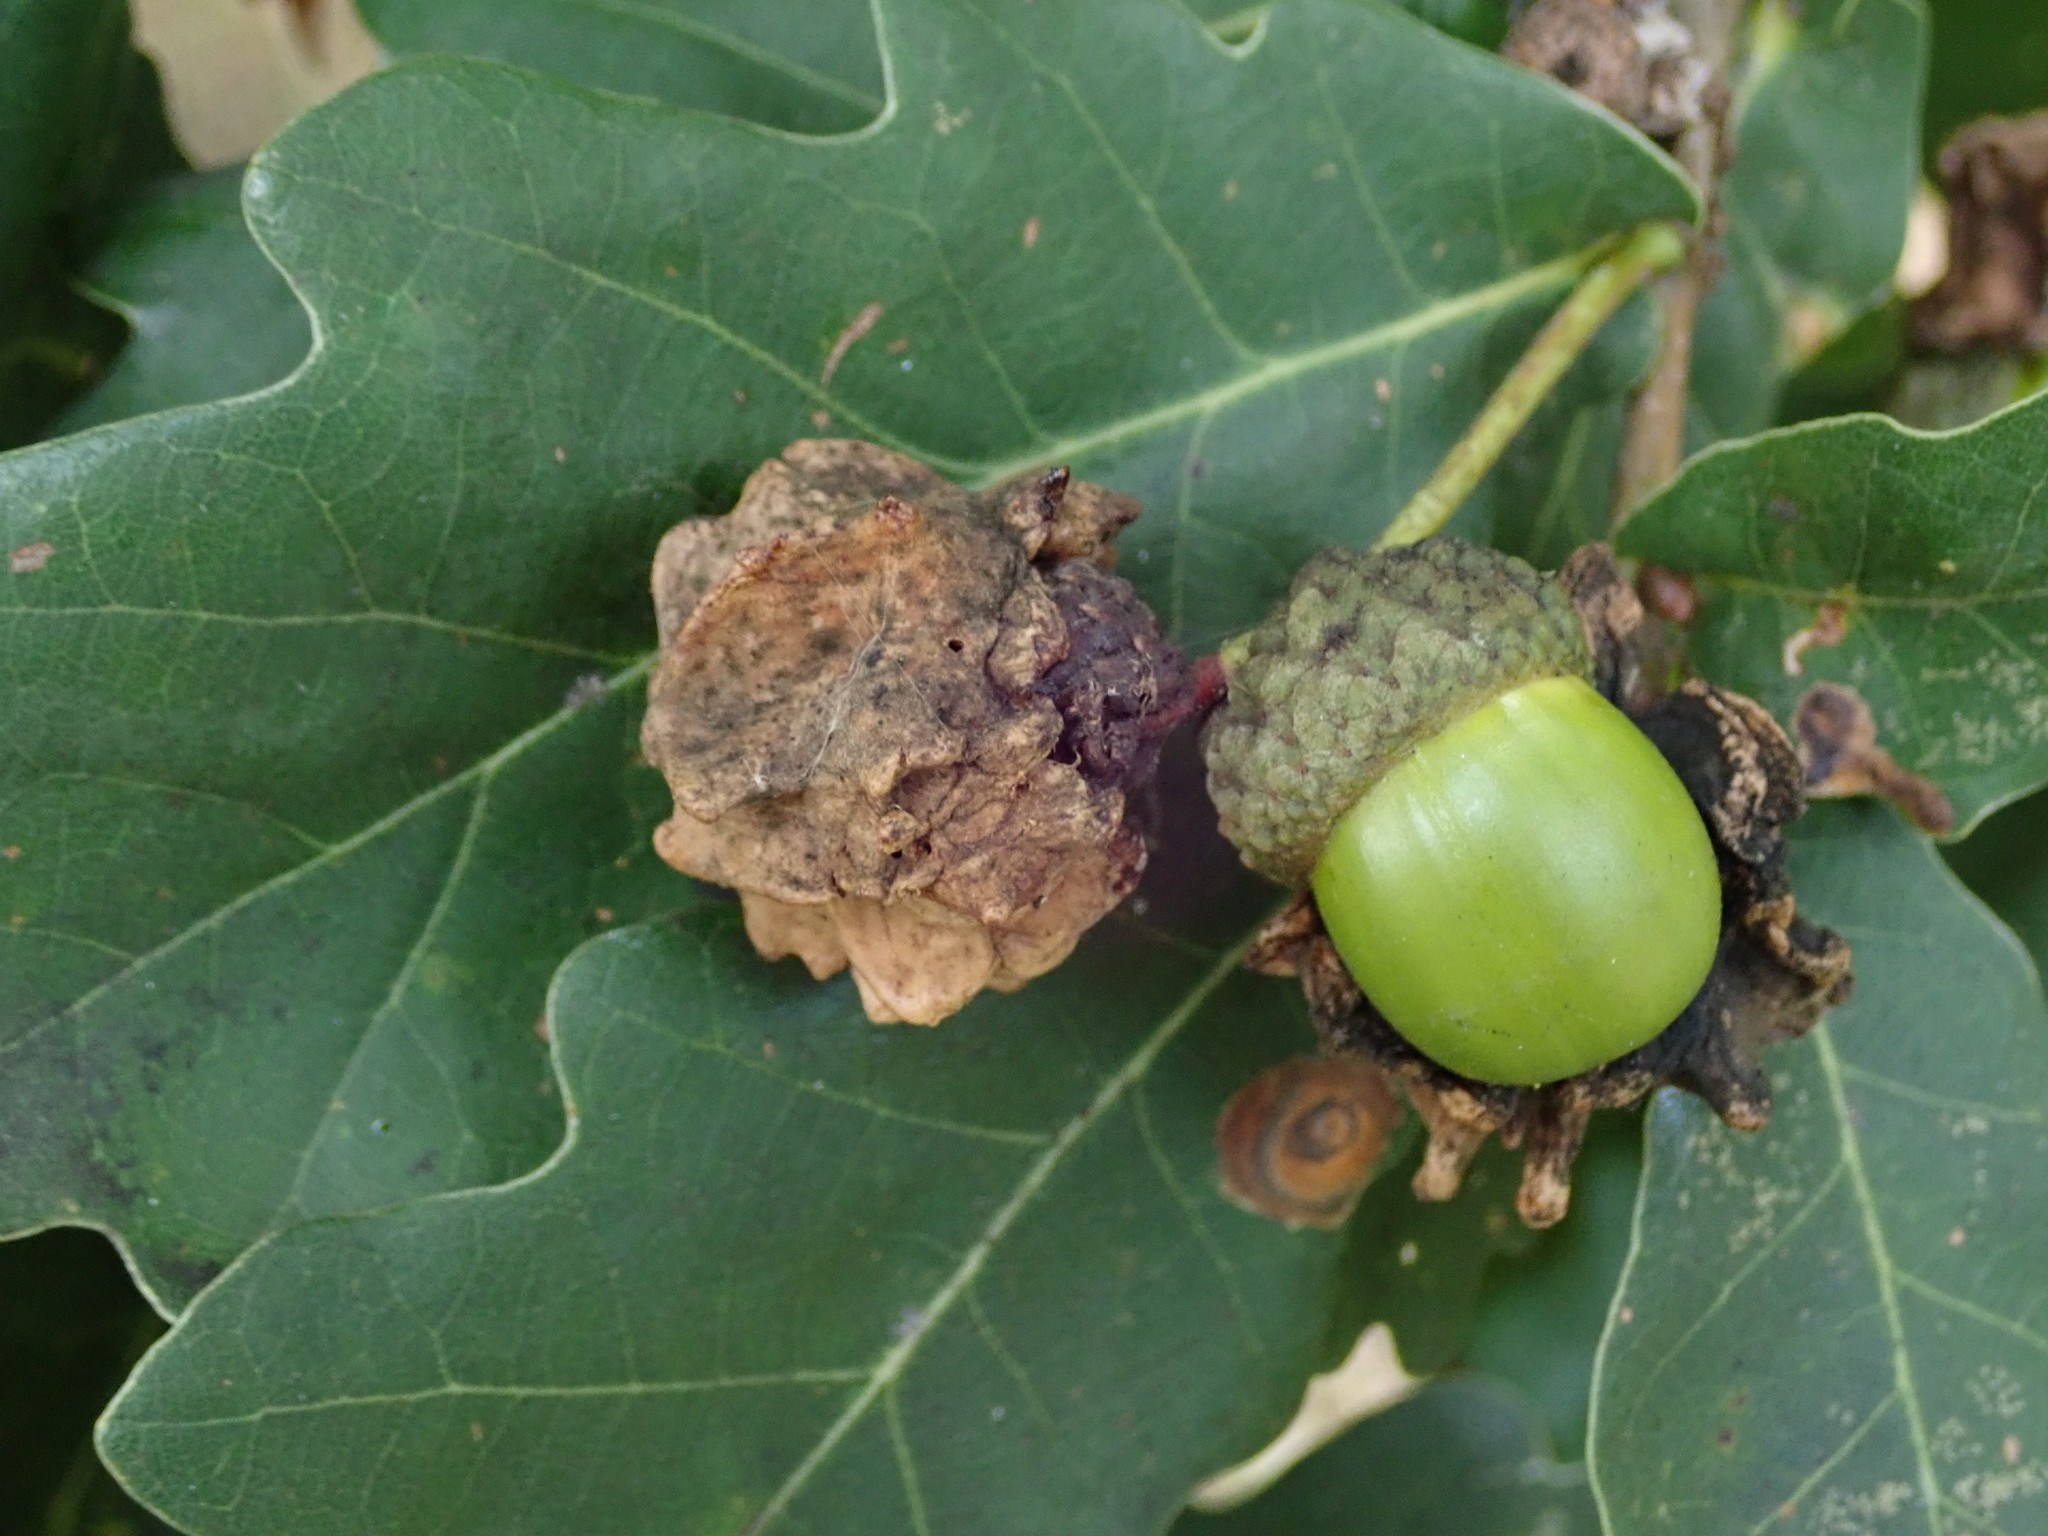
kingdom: Animalia
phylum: Arthropoda
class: Insecta
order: Hymenoptera
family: Cynipidae
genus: Andricus
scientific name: Andricus quercuscalicis
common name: Knopper gall
